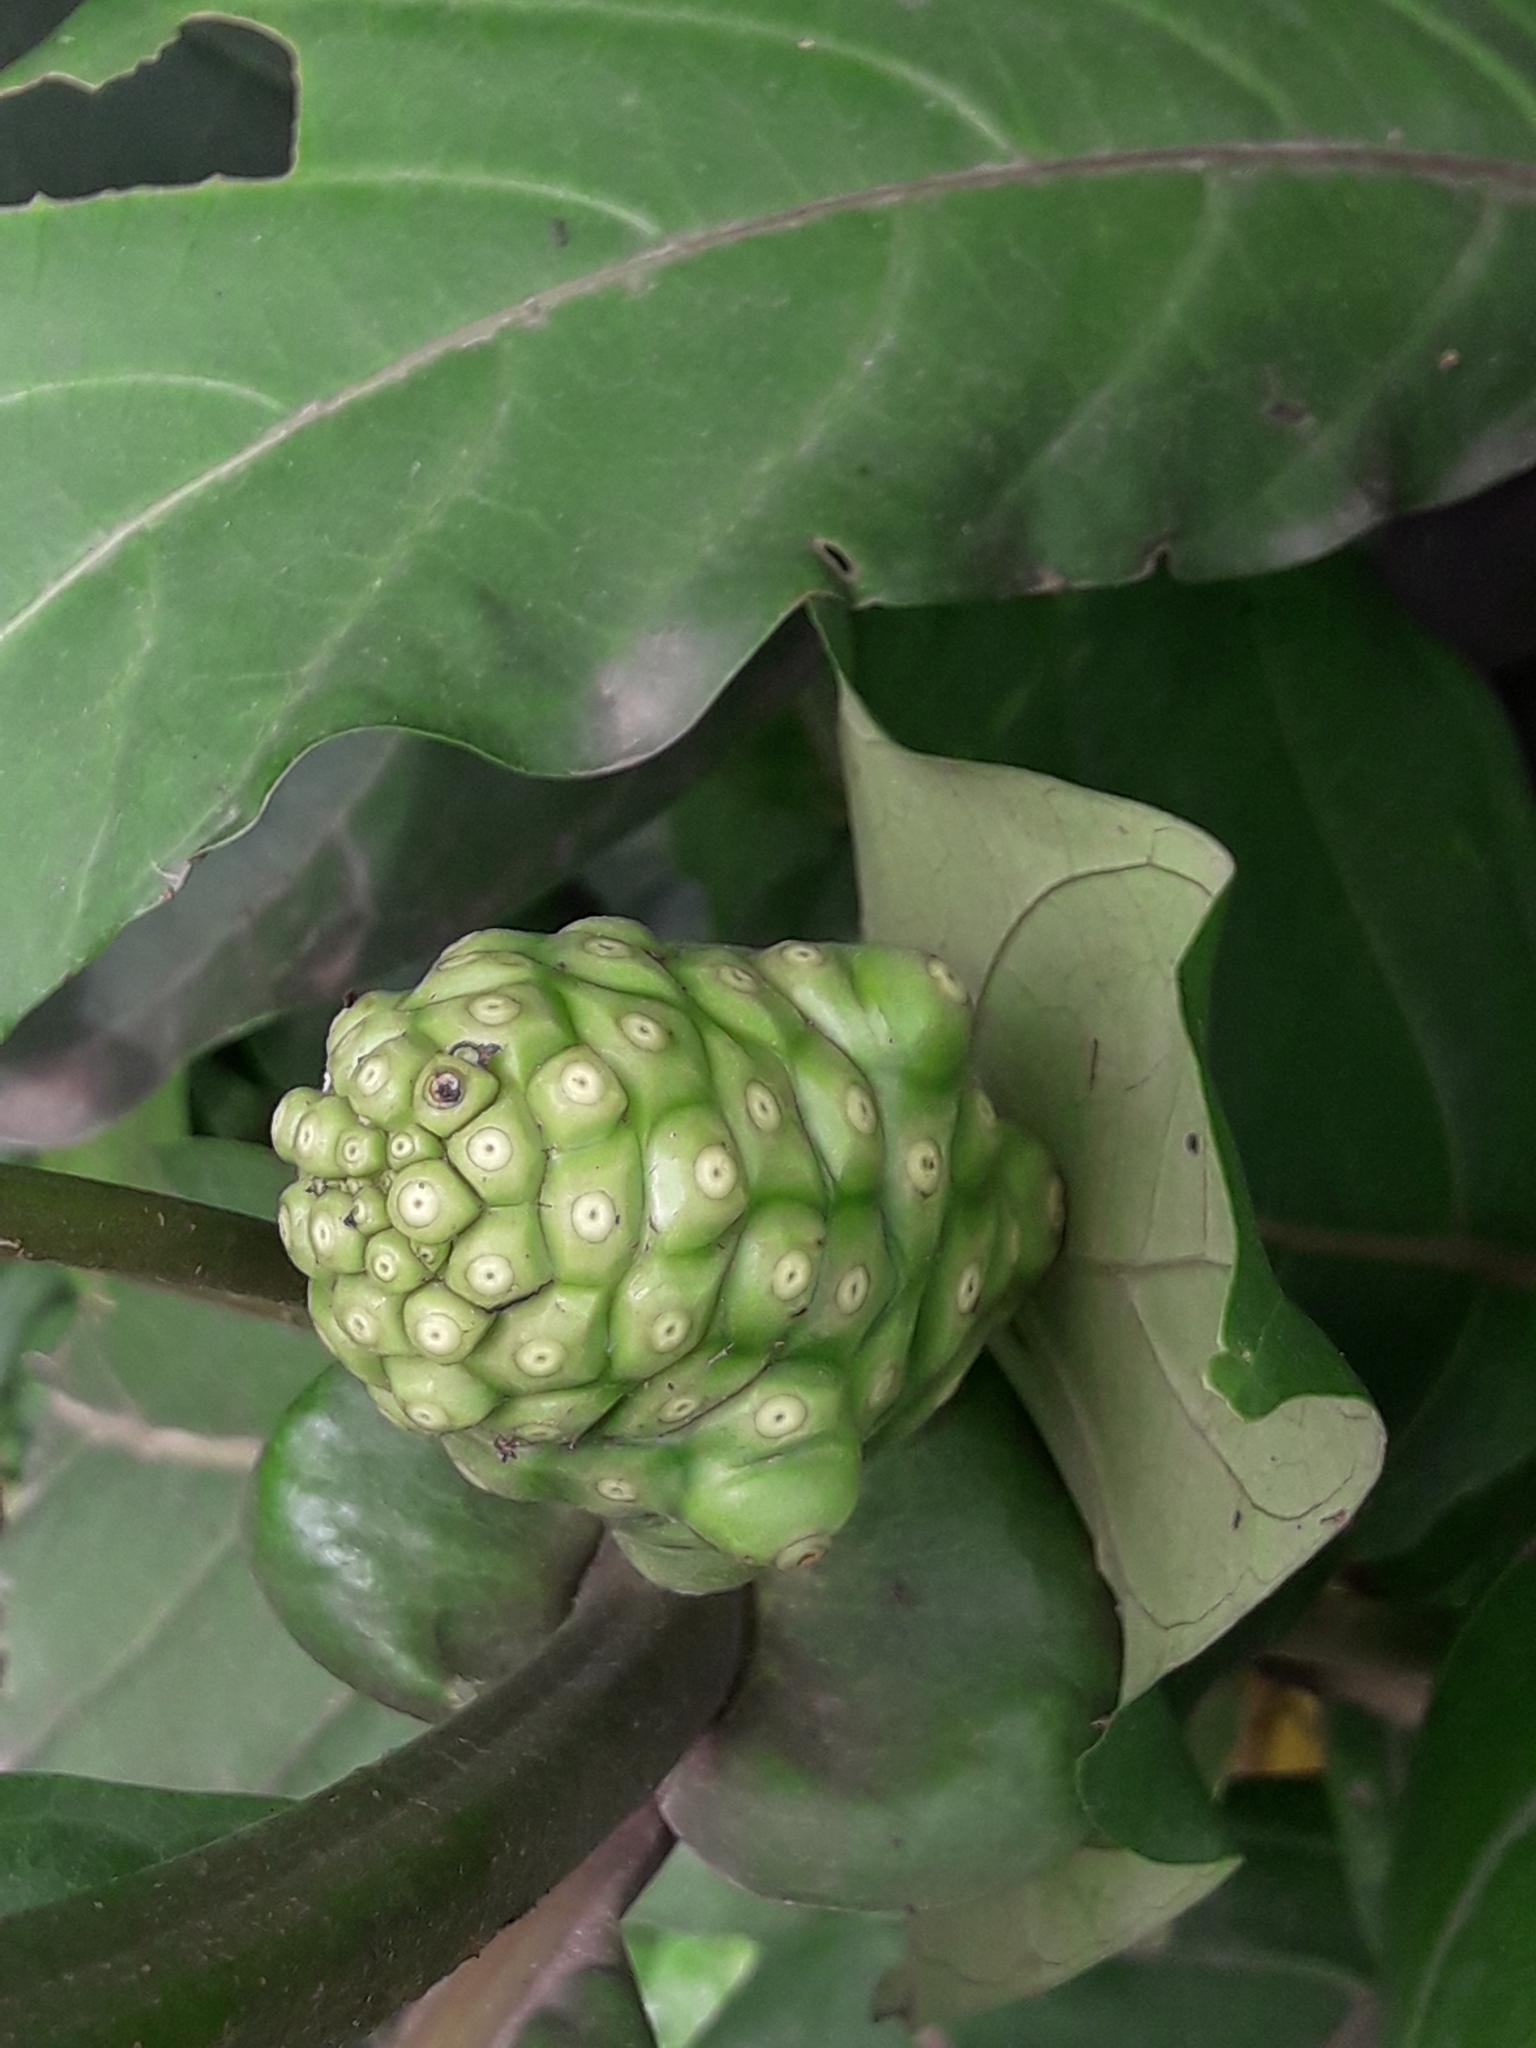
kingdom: Plantae
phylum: Tracheophyta
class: Magnoliopsida
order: Gentianales
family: Rubiaceae
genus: Morinda
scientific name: Morinda citrifolia
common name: Indian-mulberry
